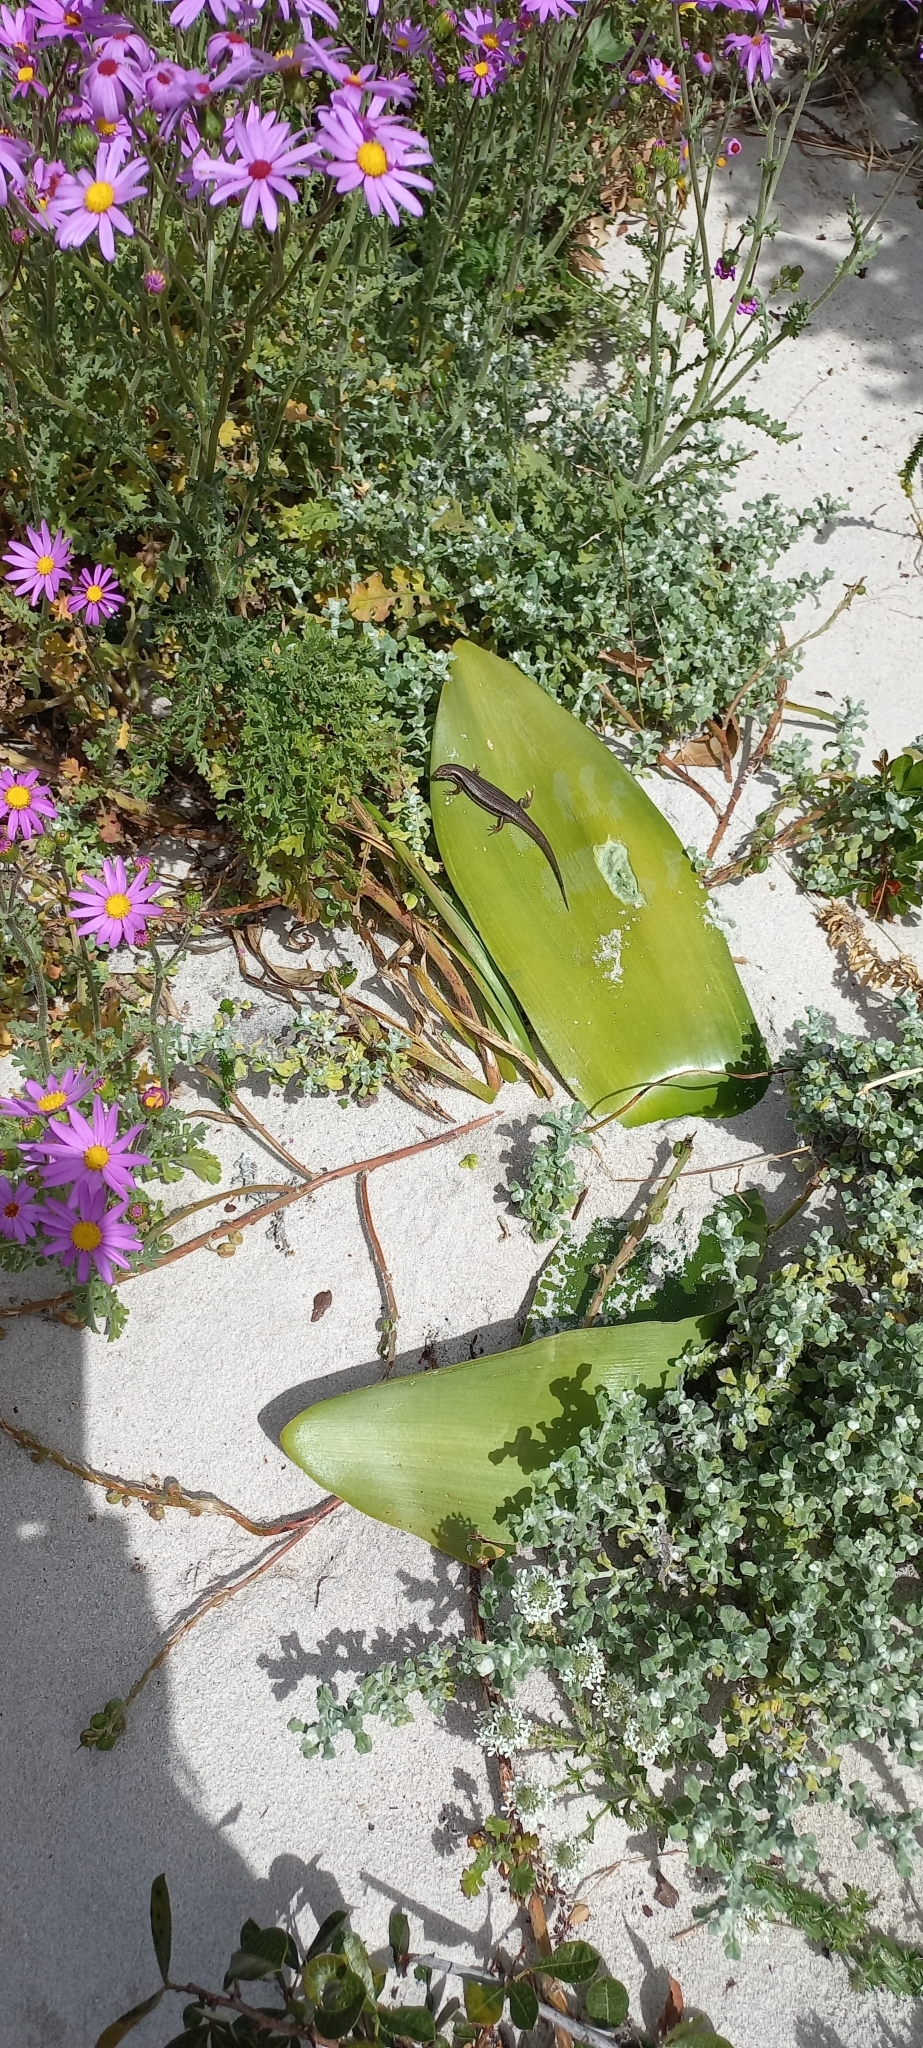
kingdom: Animalia
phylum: Chordata
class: Squamata
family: Scincidae
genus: Trachylepis
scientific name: Trachylepis homalocephala
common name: Red-sided skink
